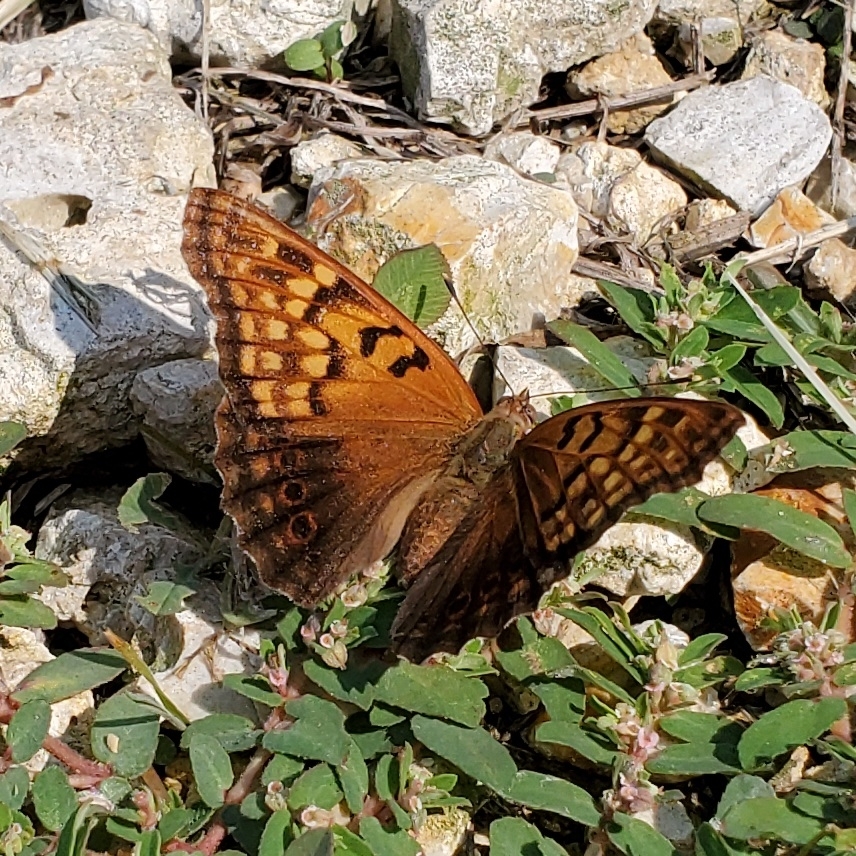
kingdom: Animalia
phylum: Arthropoda
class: Insecta
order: Lepidoptera
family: Nymphalidae
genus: Asterocampa
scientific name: Asterocampa clyton
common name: Tawny emperor
